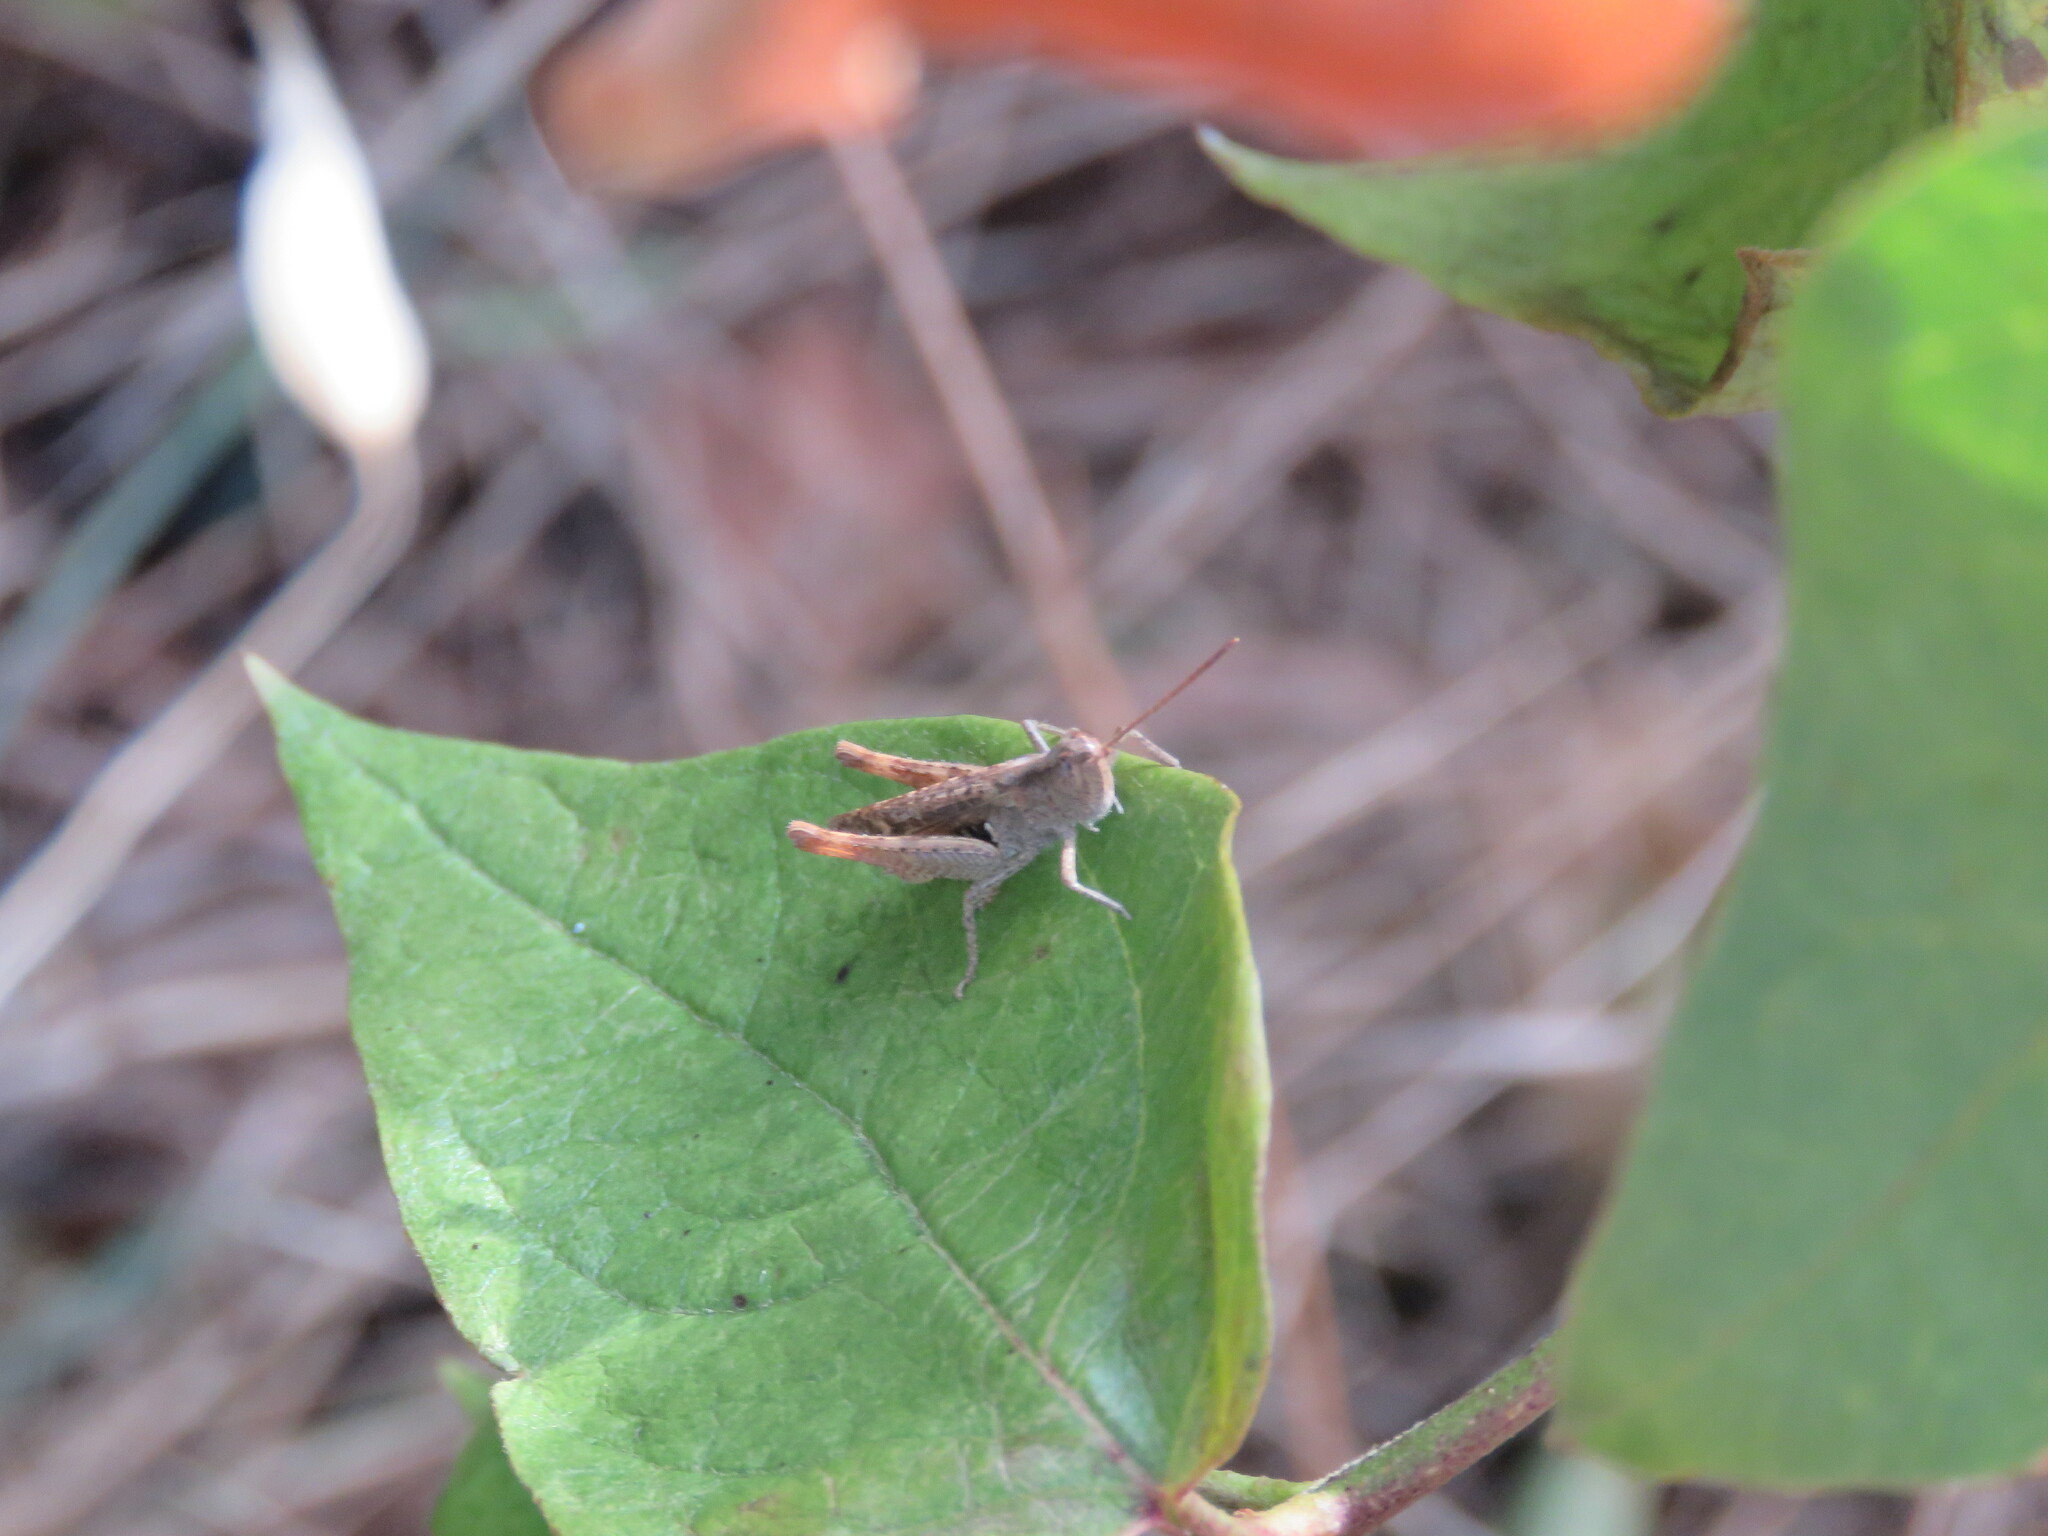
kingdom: Animalia
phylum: Arthropoda
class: Insecta
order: Orthoptera
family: Acrididae
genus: Chorthippus
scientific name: Chorthippus vagans
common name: Heath grasshopper
